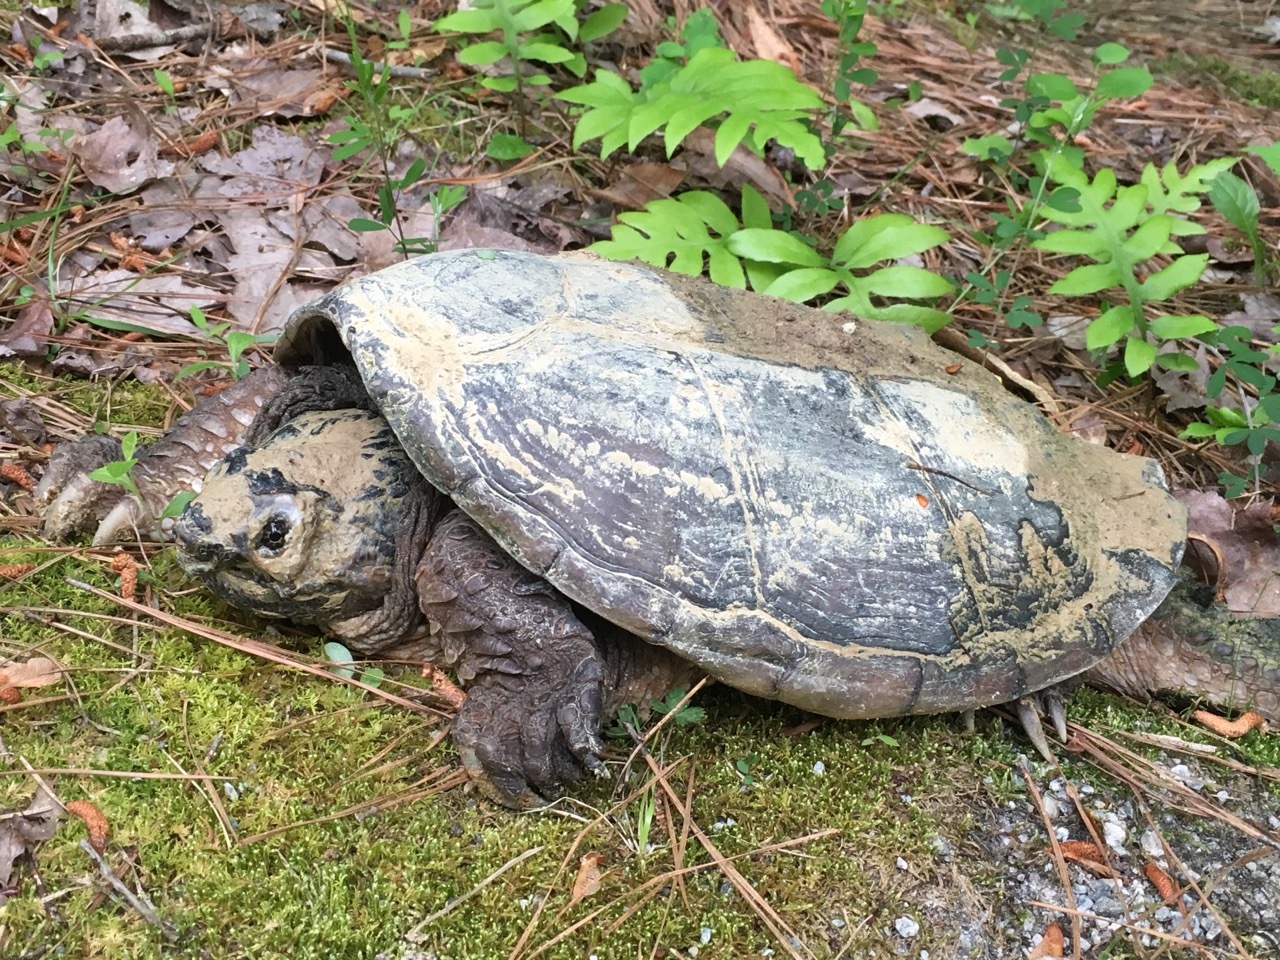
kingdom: Animalia
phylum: Chordata
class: Testudines
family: Chelydridae
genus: Chelydra
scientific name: Chelydra serpentina
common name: Common snapping turtle
